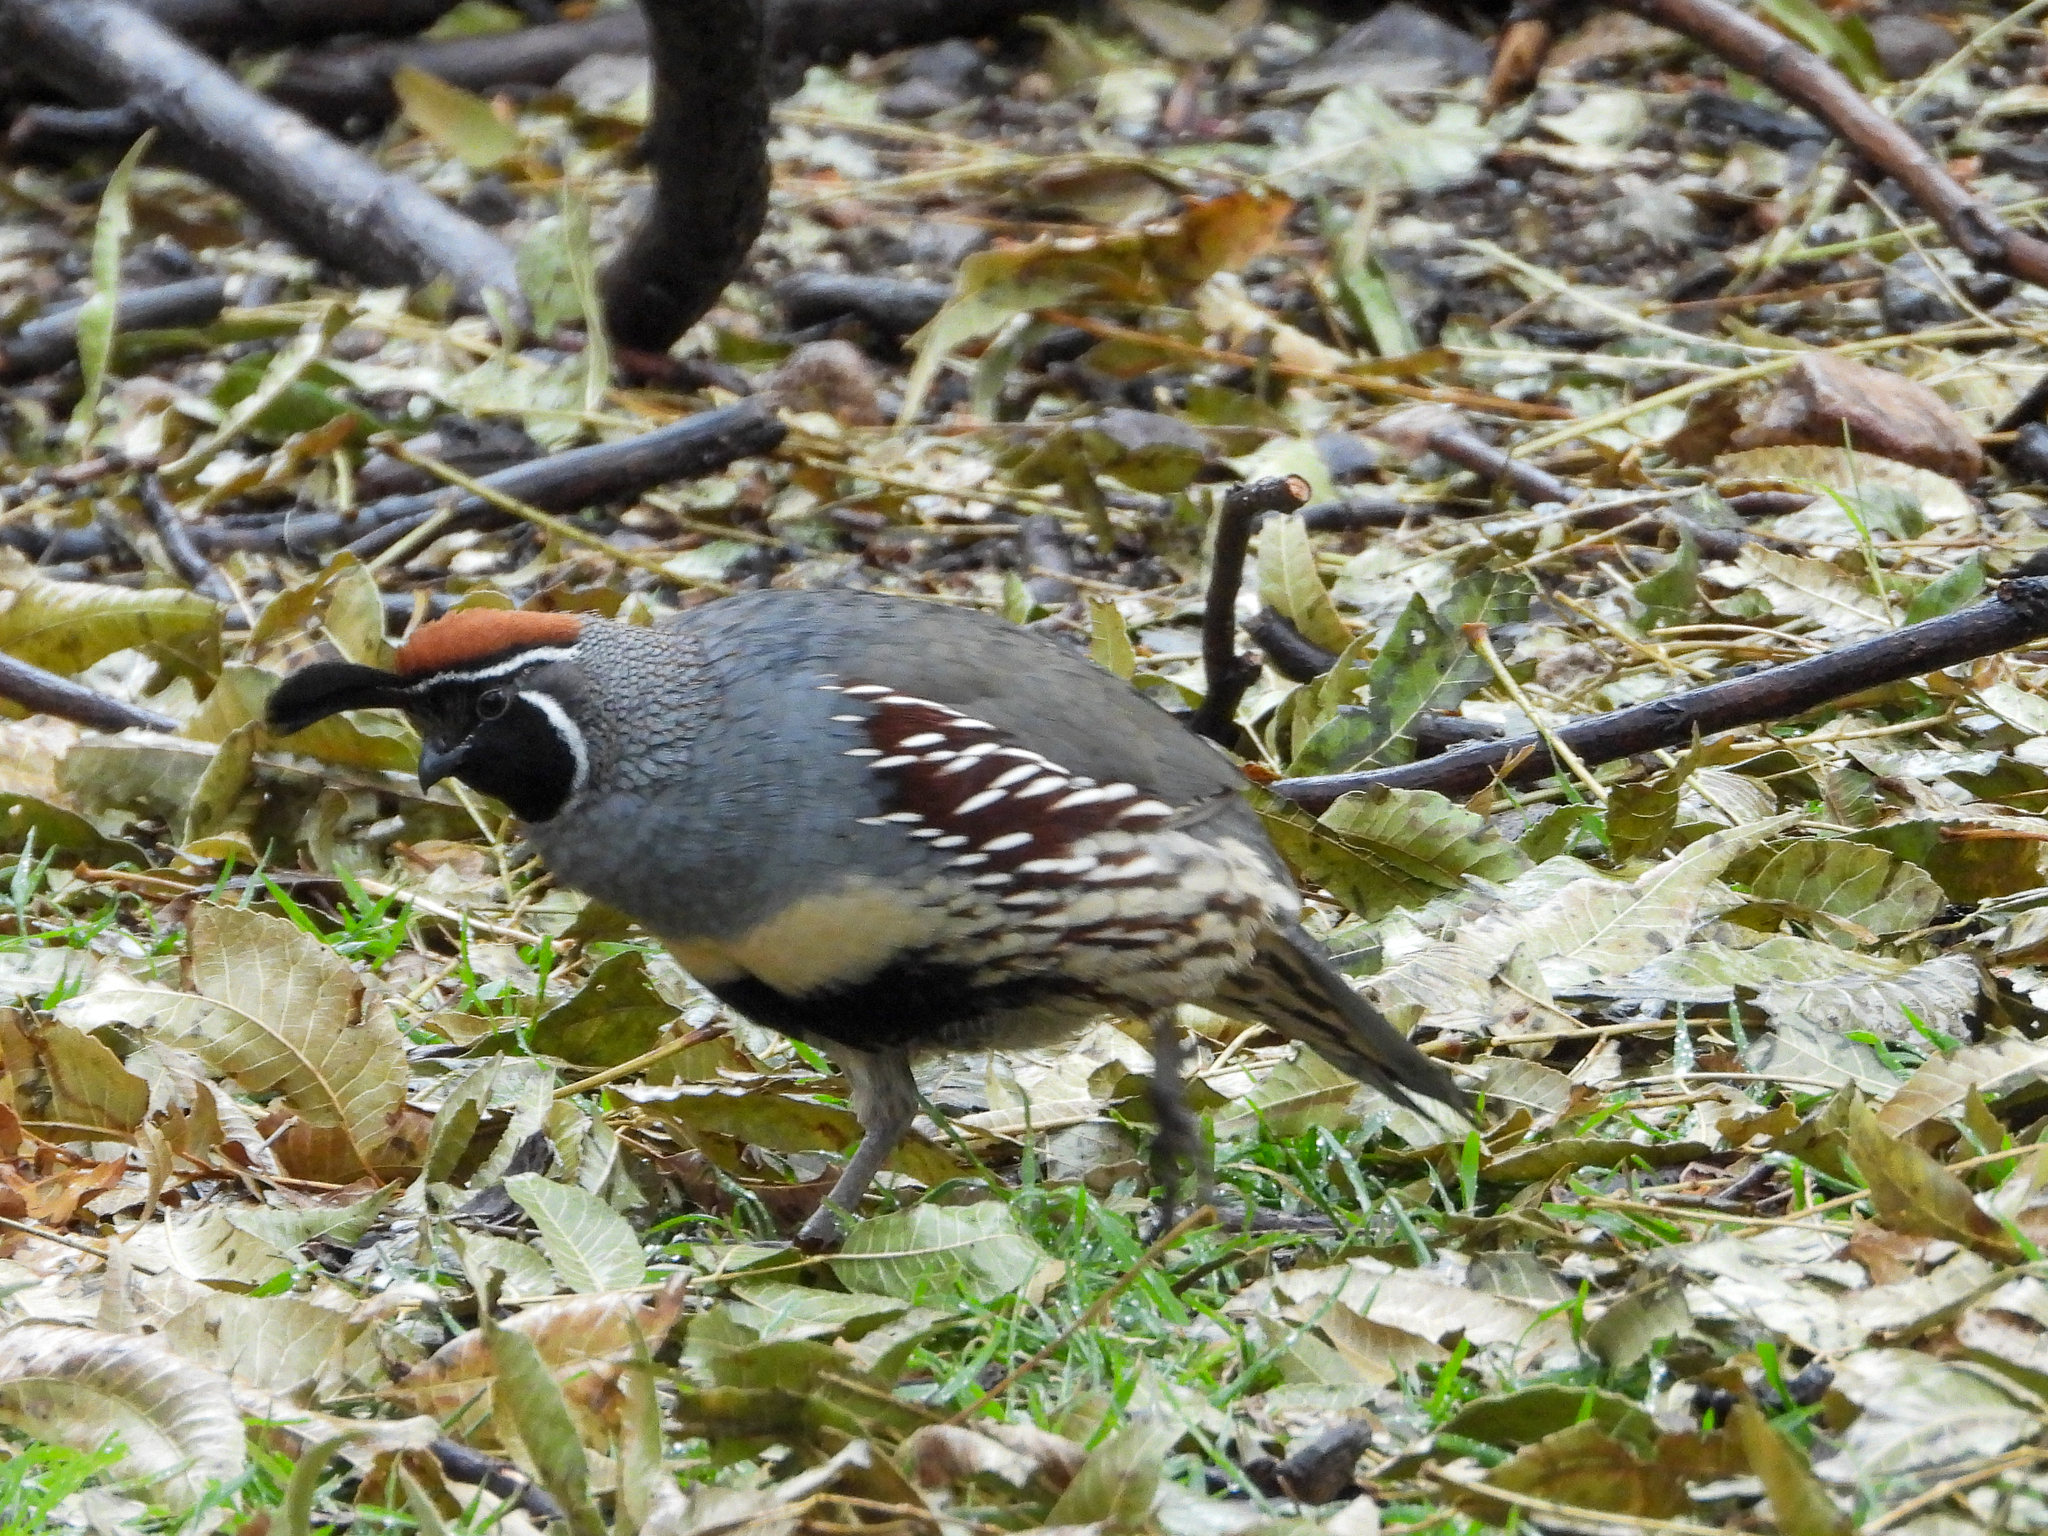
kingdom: Animalia
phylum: Chordata
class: Aves
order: Galliformes
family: Odontophoridae
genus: Callipepla
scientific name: Callipepla gambelii
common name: Gambel's quail
